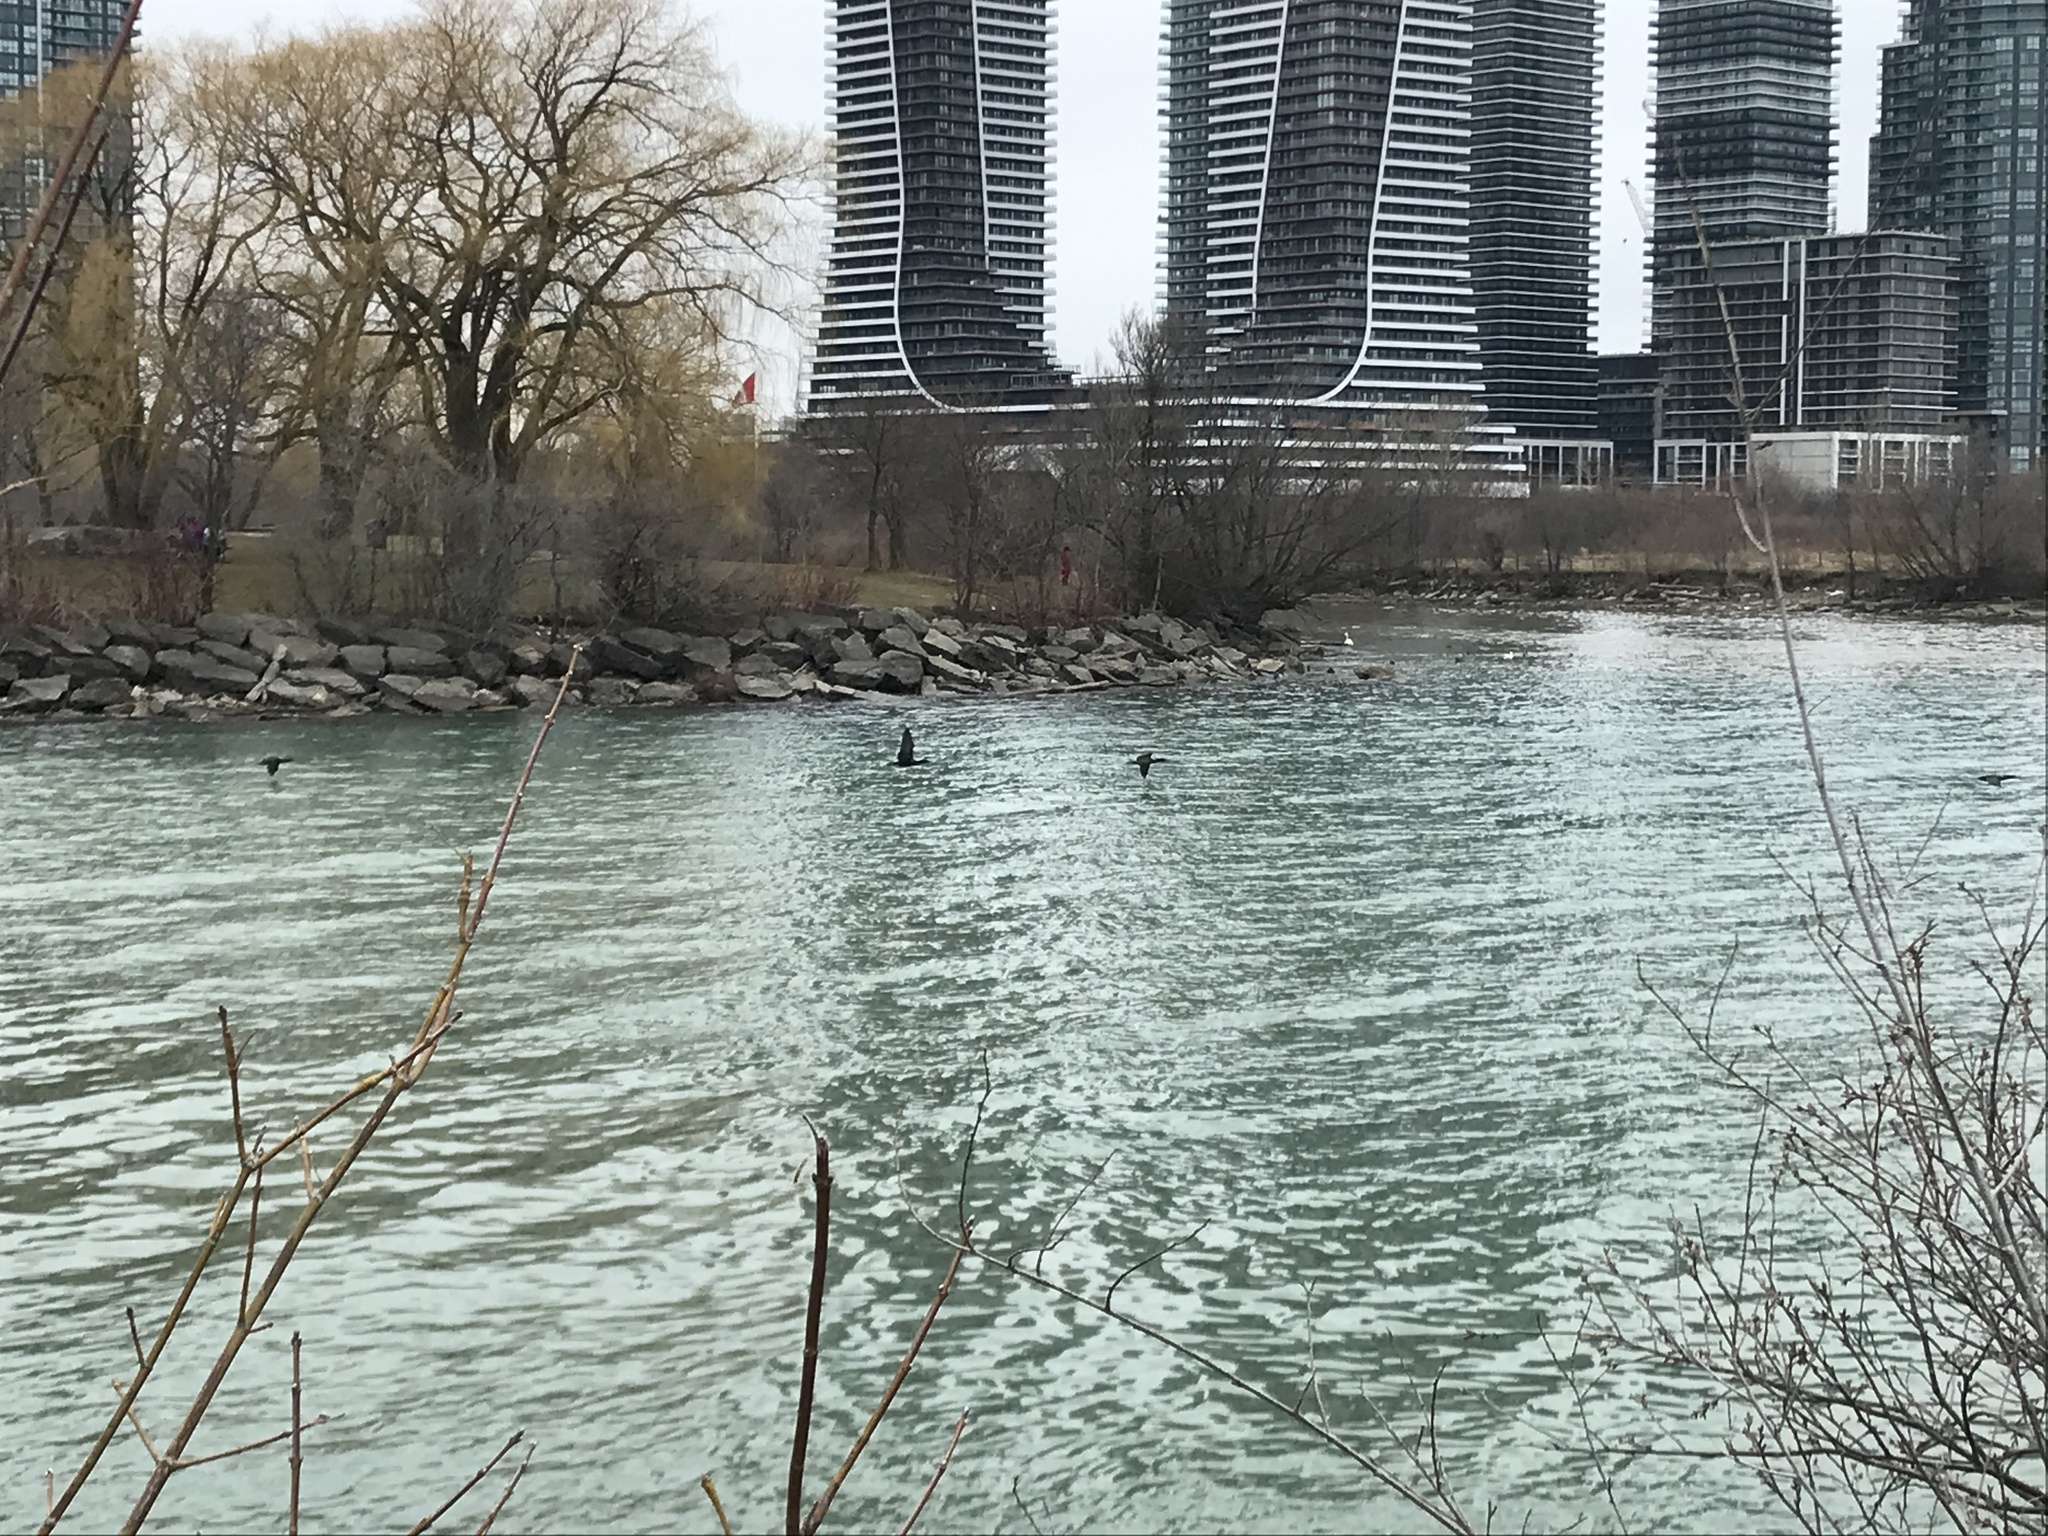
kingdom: Animalia
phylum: Chordata
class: Aves
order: Suliformes
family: Phalacrocoracidae
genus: Phalacrocorax
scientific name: Phalacrocorax auritus
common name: Double-crested cormorant
